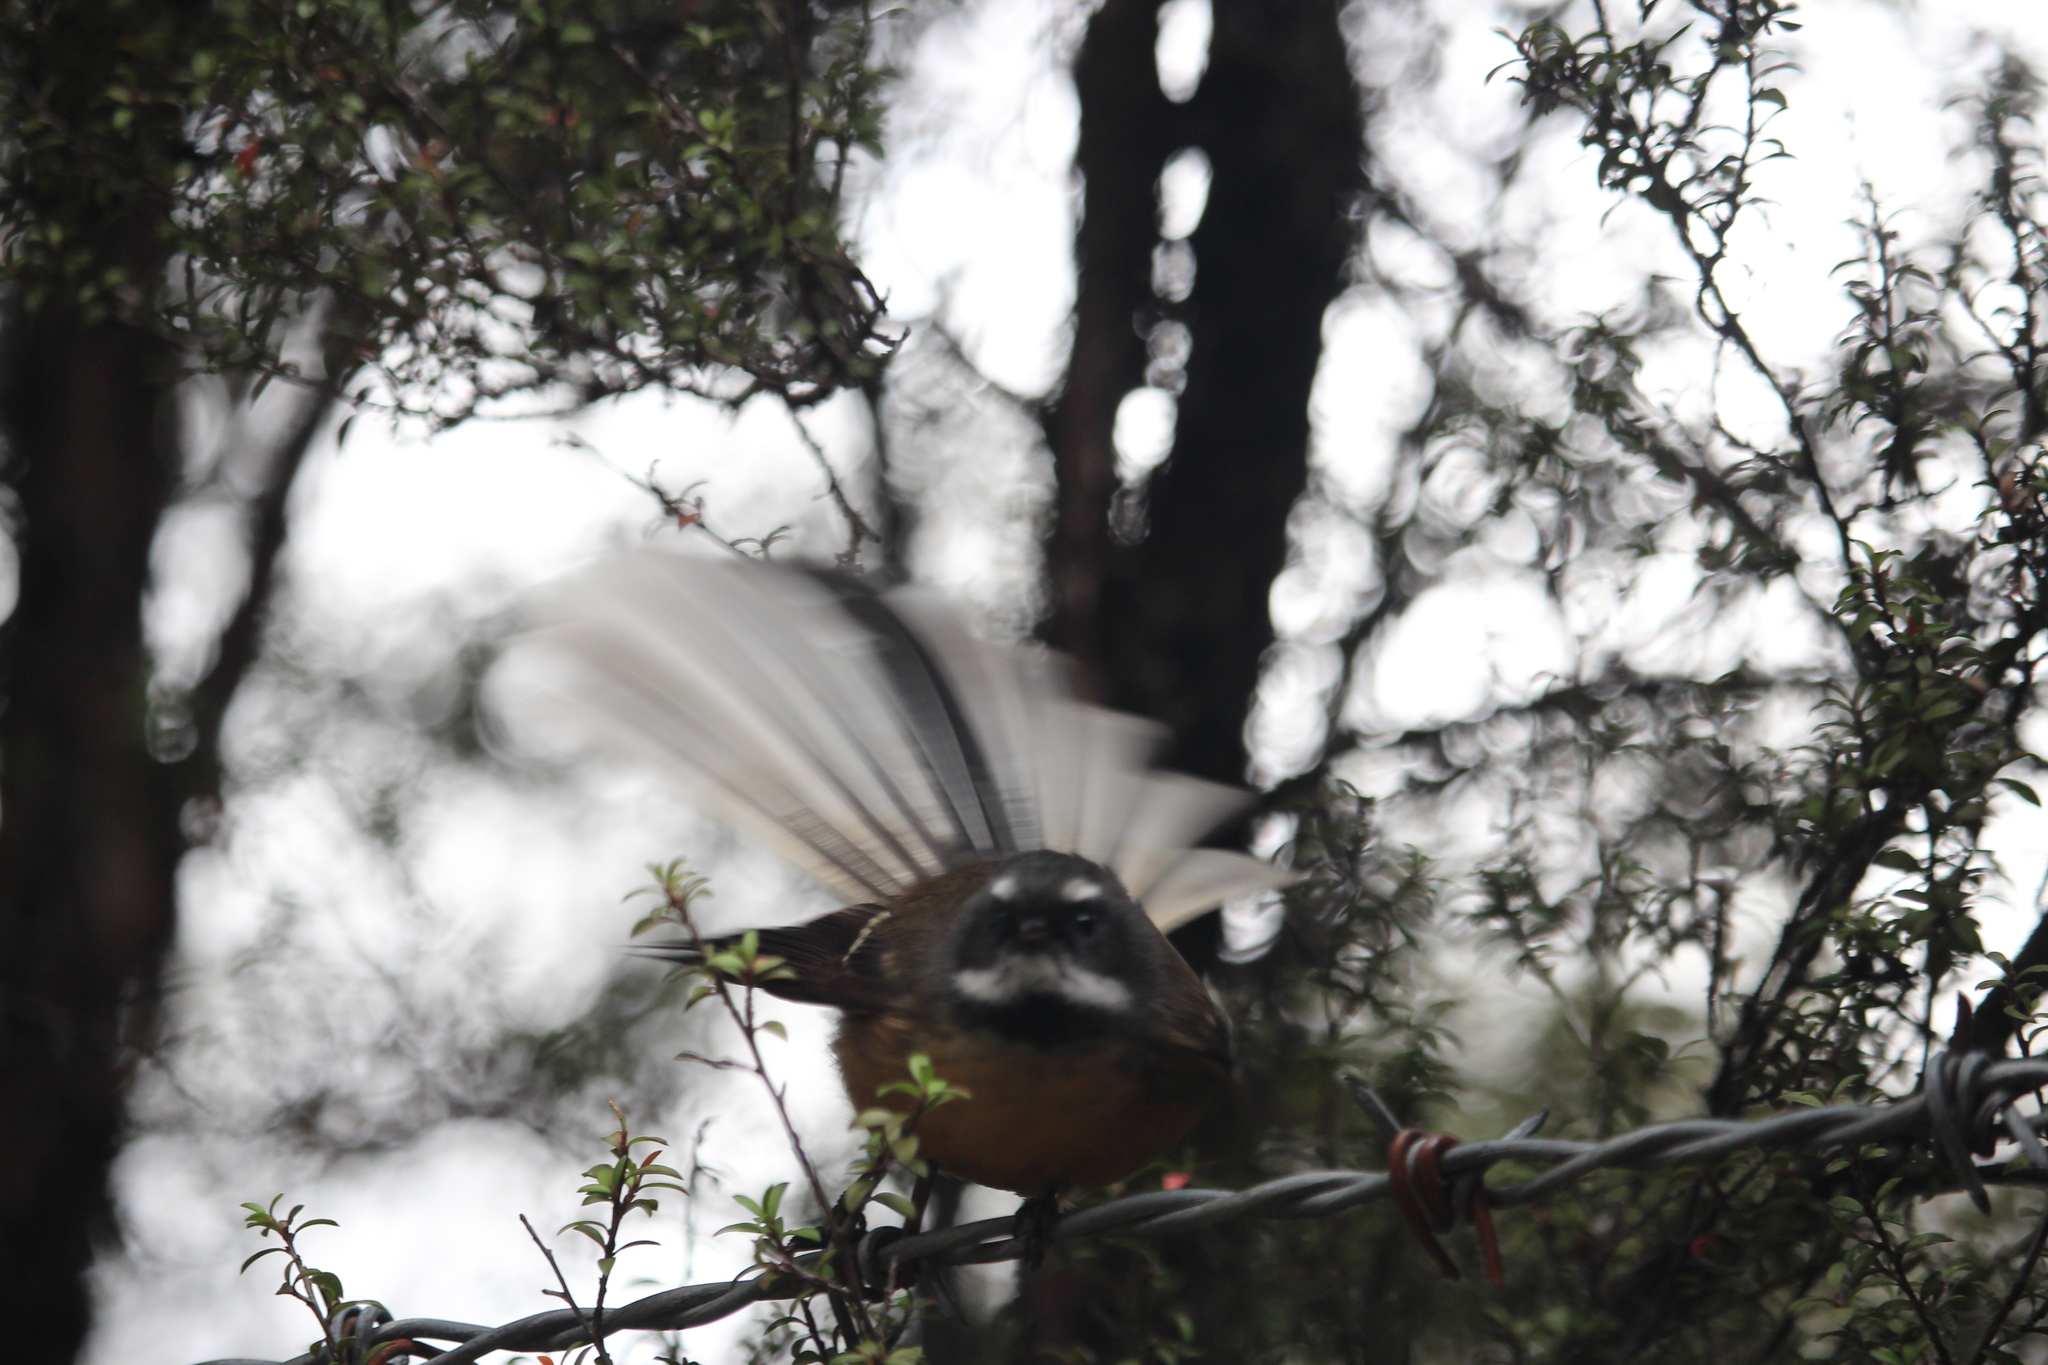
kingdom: Animalia
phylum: Chordata
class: Aves
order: Passeriformes
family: Rhipiduridae
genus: Rhipidura
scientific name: Rhipidura fuliginosa
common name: New zealand fantail
